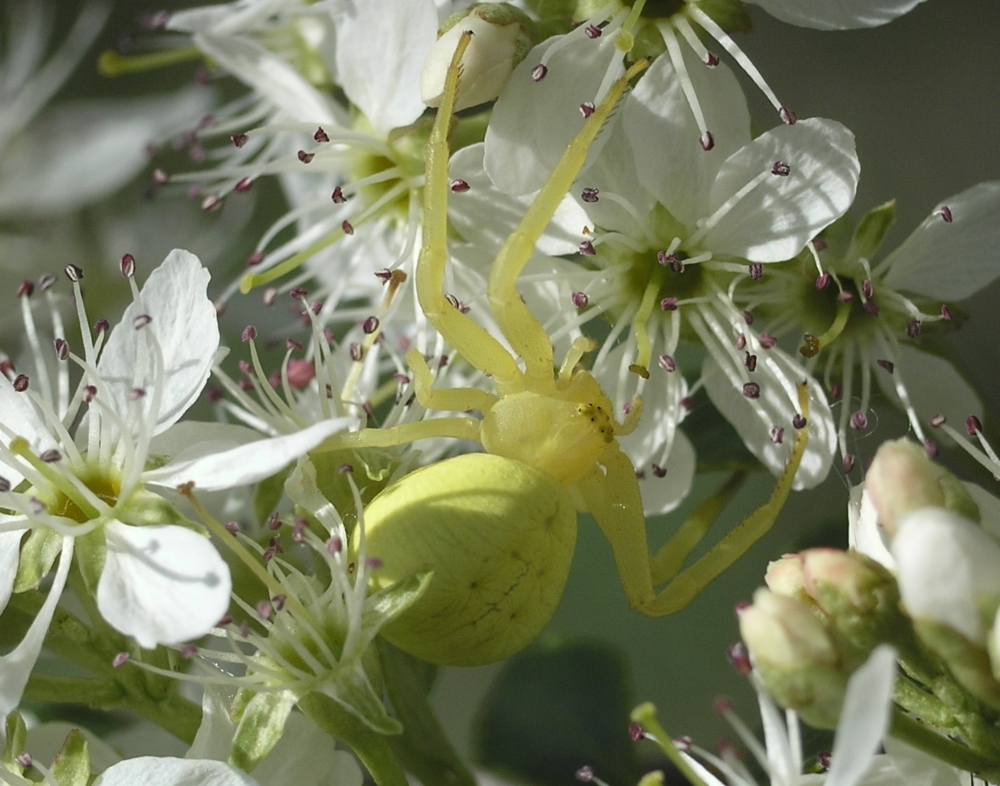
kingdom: Animalia
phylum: Arthropoda
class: Arachnida
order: Araneae
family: Thomisidae
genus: Misumena
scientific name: Misumena vatia
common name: Goldenrod crab spider
